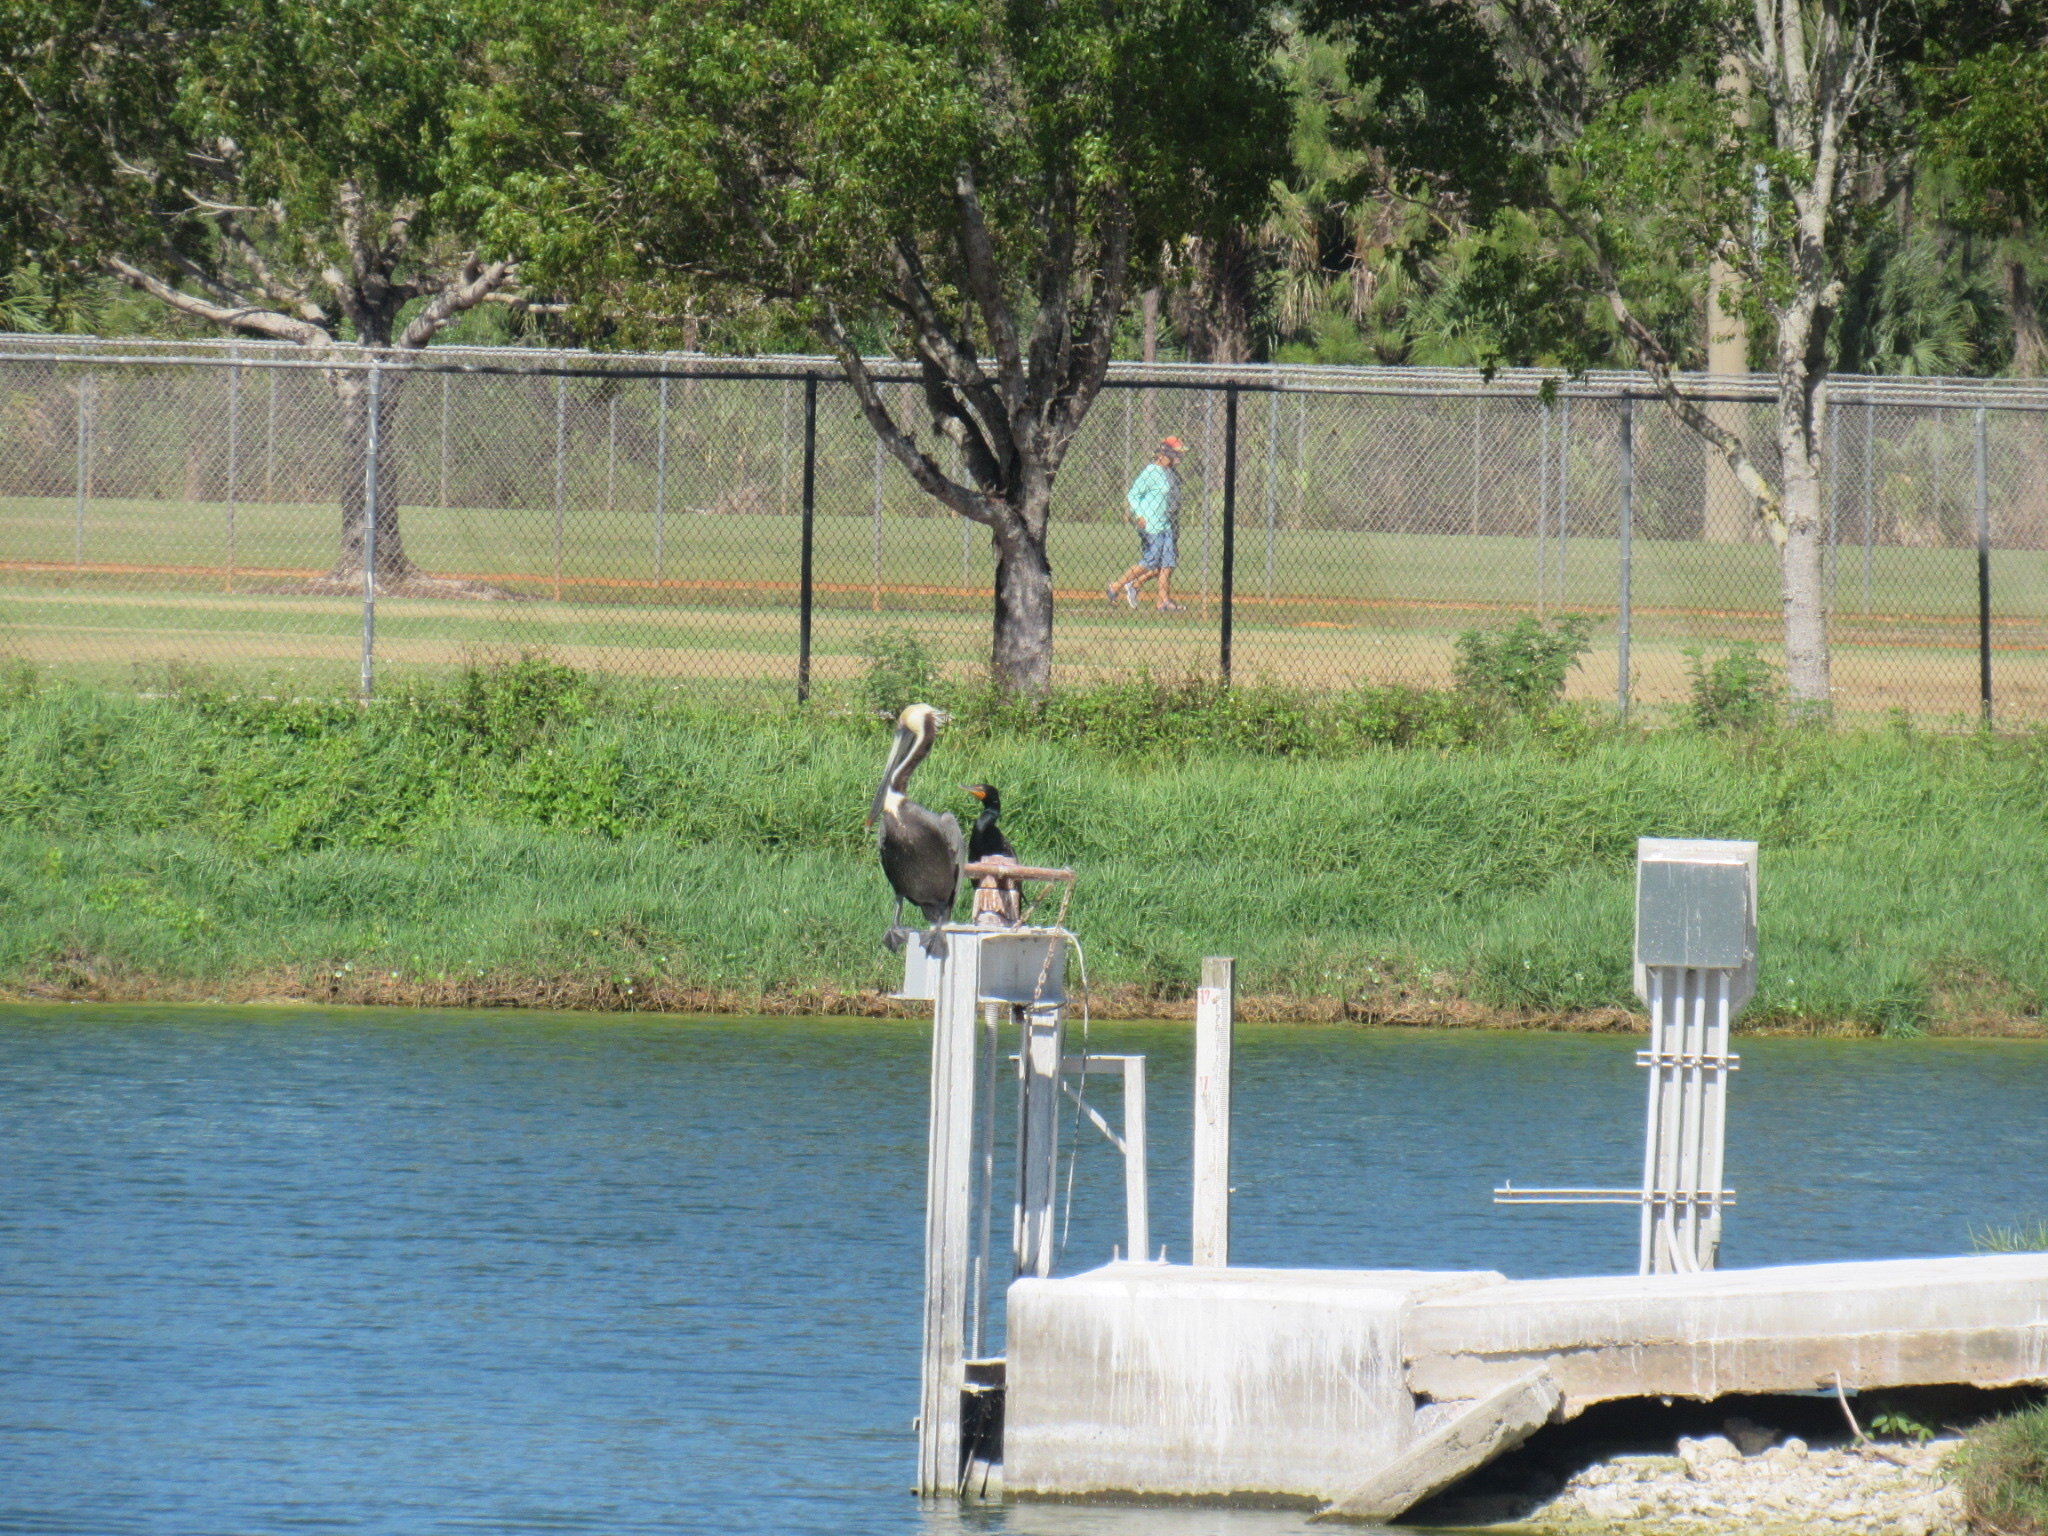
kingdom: Animalia
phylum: Chordata
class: Aves
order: Pelecaniformes
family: Pelecanidae
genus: Pelecanus
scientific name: Pelecanus occidentalis
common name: Brown pelican
